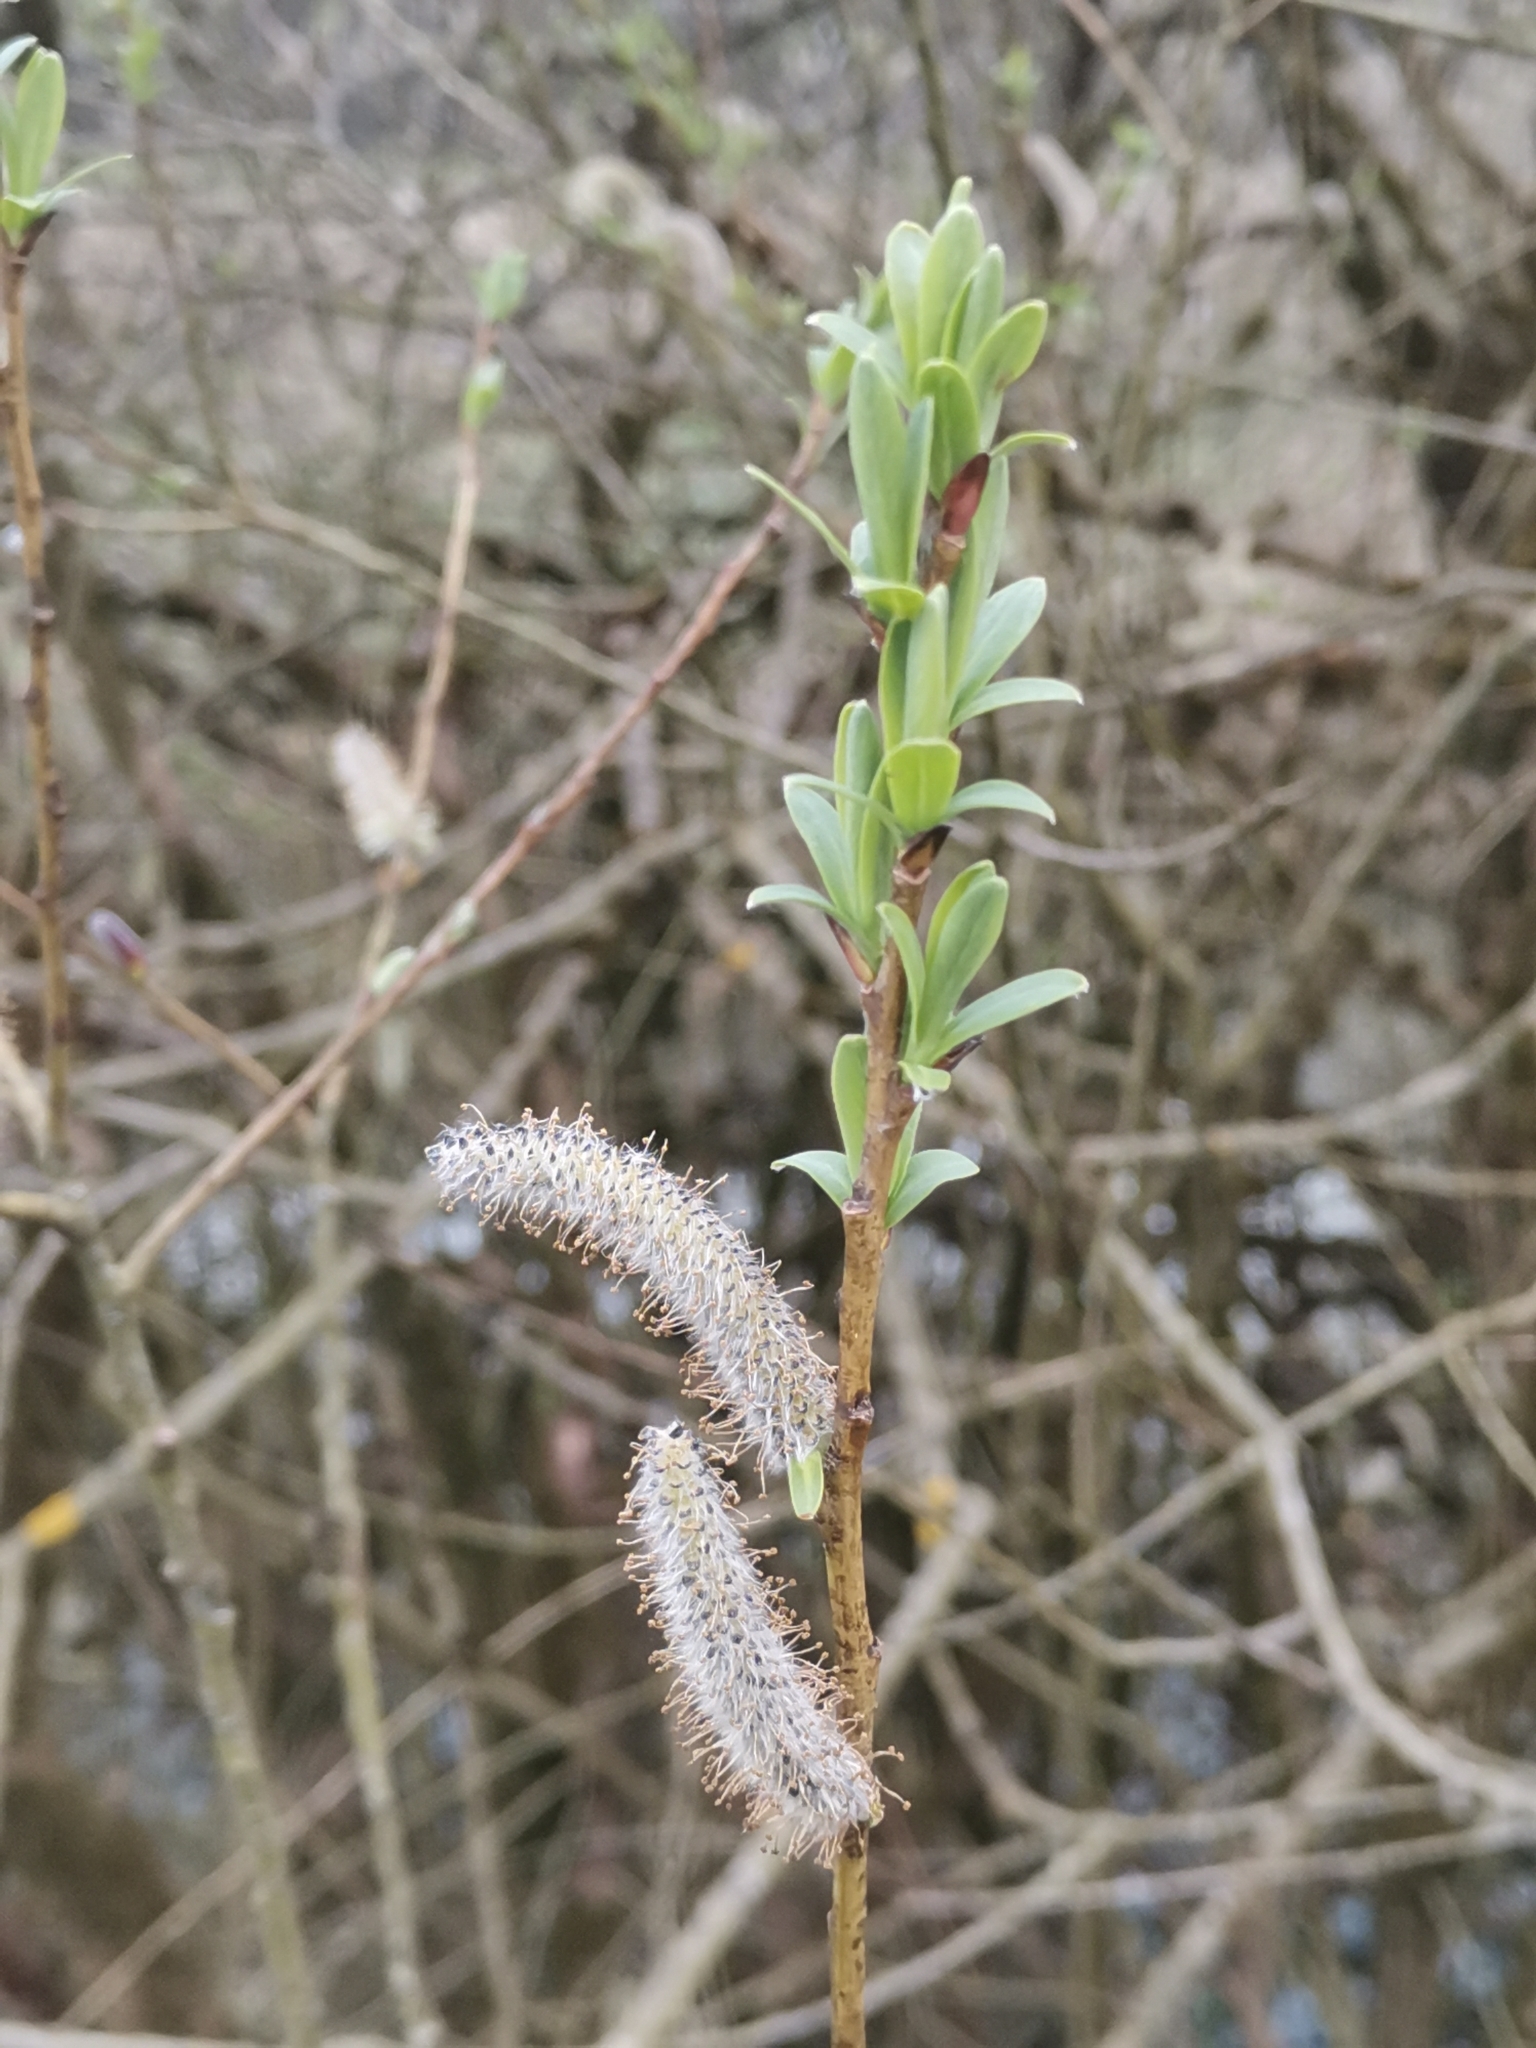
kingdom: Plantae
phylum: Tracheophyta
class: Magnoliopsida
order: Malpighiales
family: Salicaceae
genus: Salix
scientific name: Salix purpurea
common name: Purple willow
